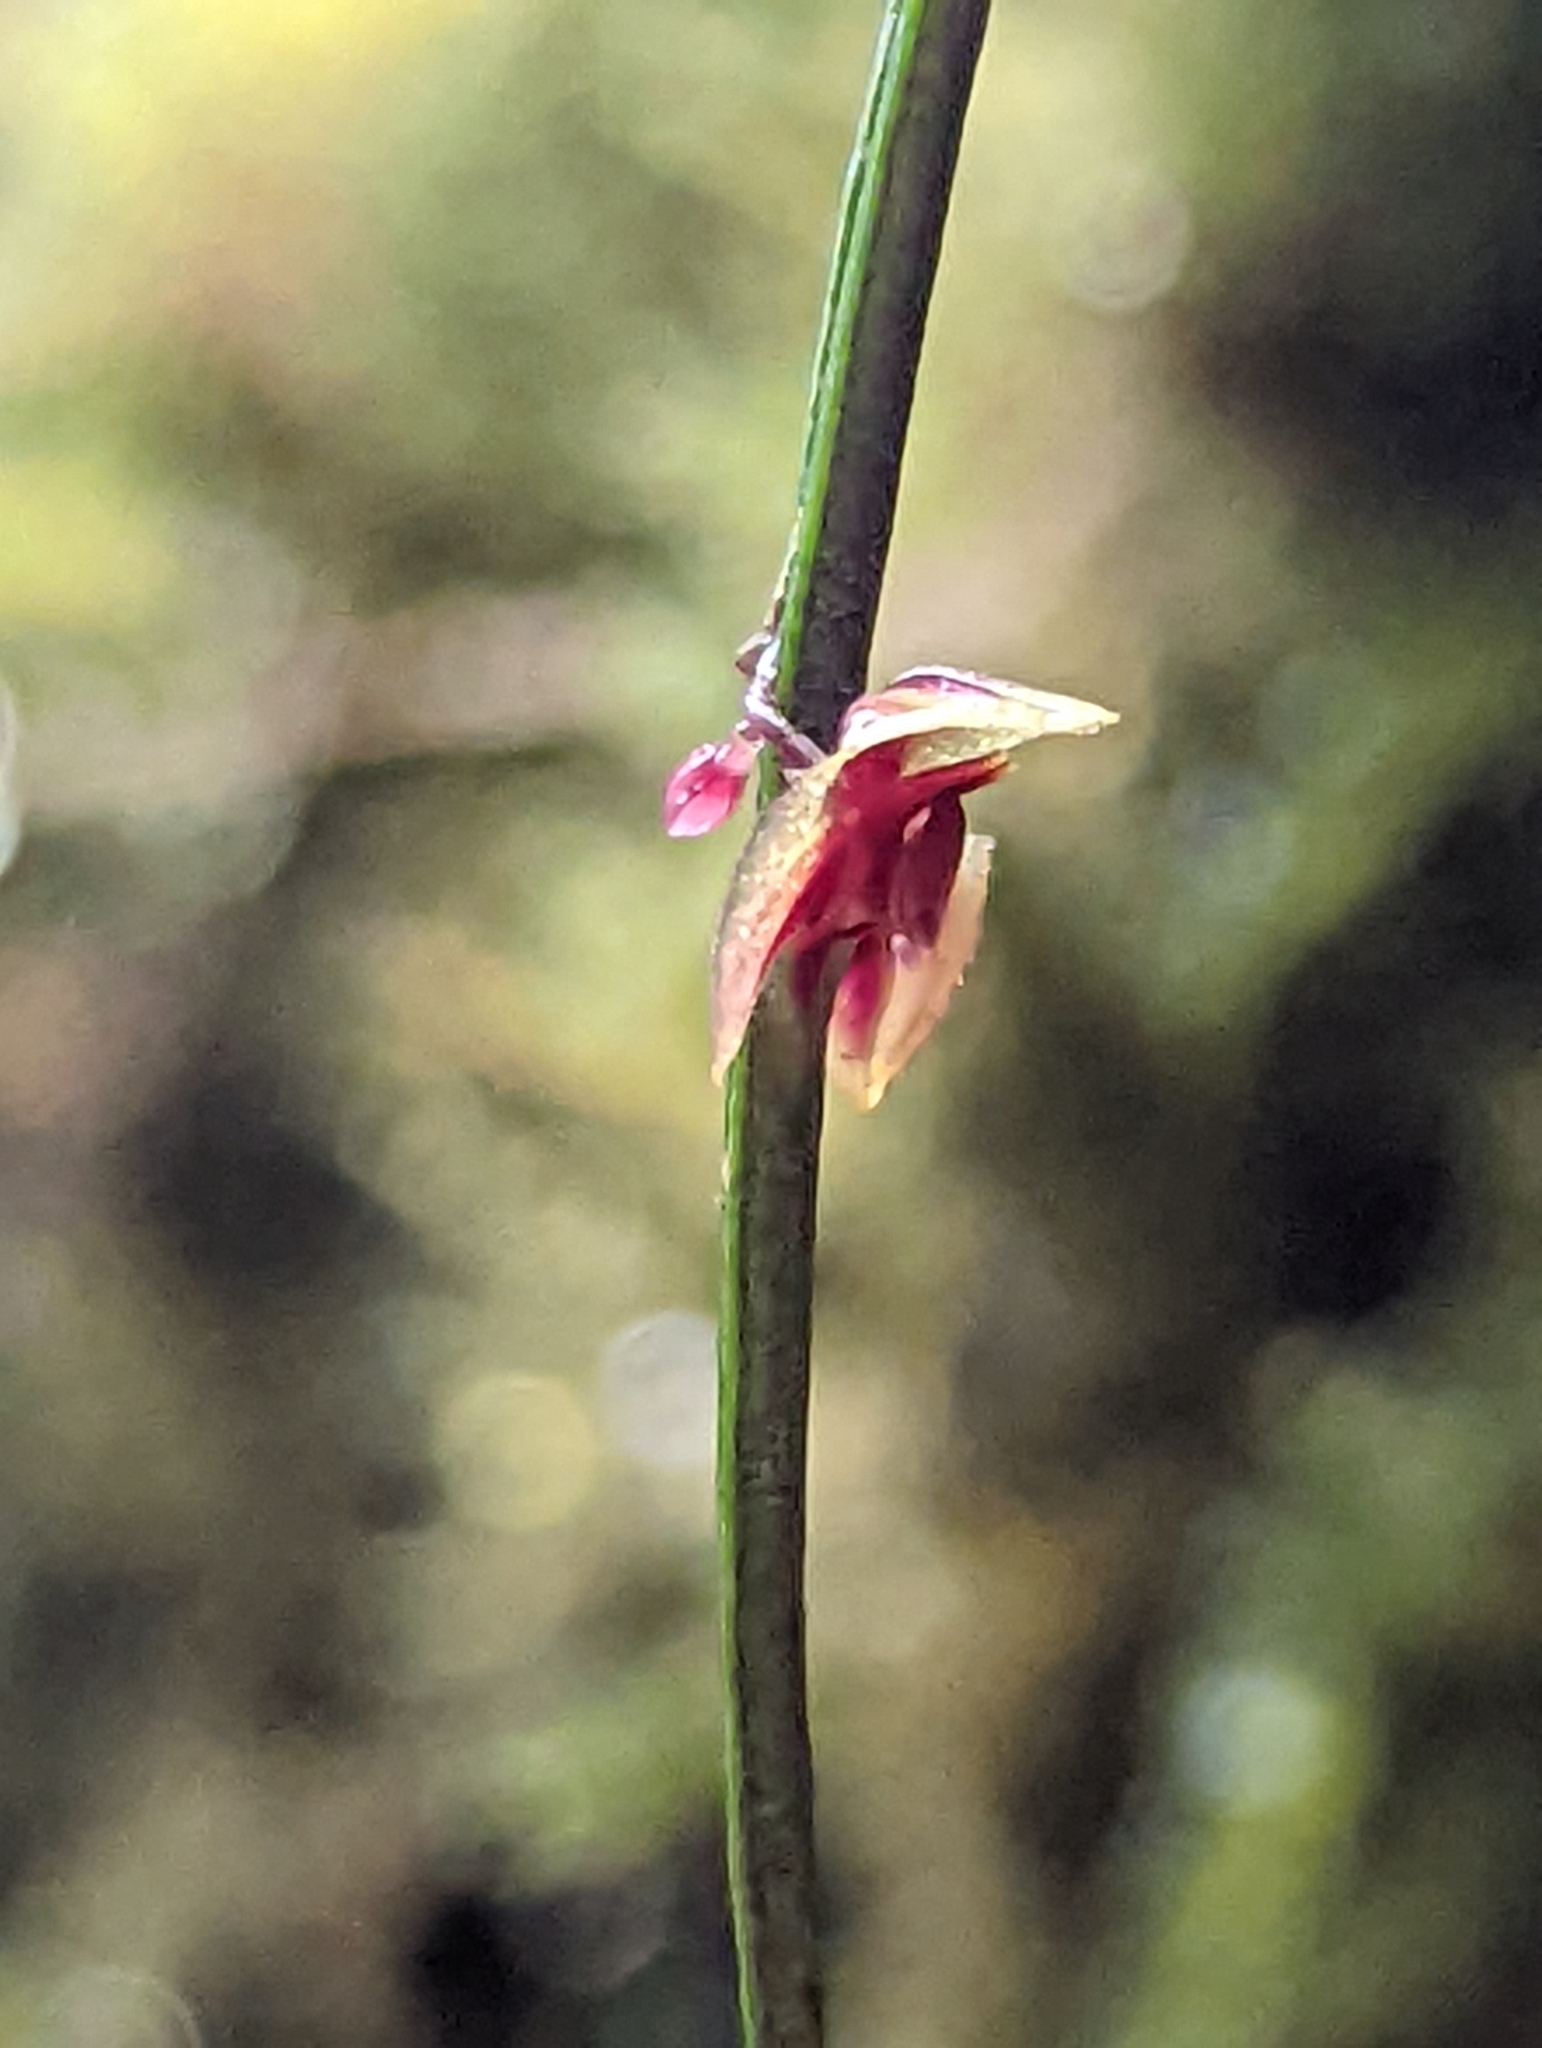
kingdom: Plantae
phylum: Tracheophyta
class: Liliopsida
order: Asparagales
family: Orchidaceae
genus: Lepanthes
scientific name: Lepanthes aciculifolia
